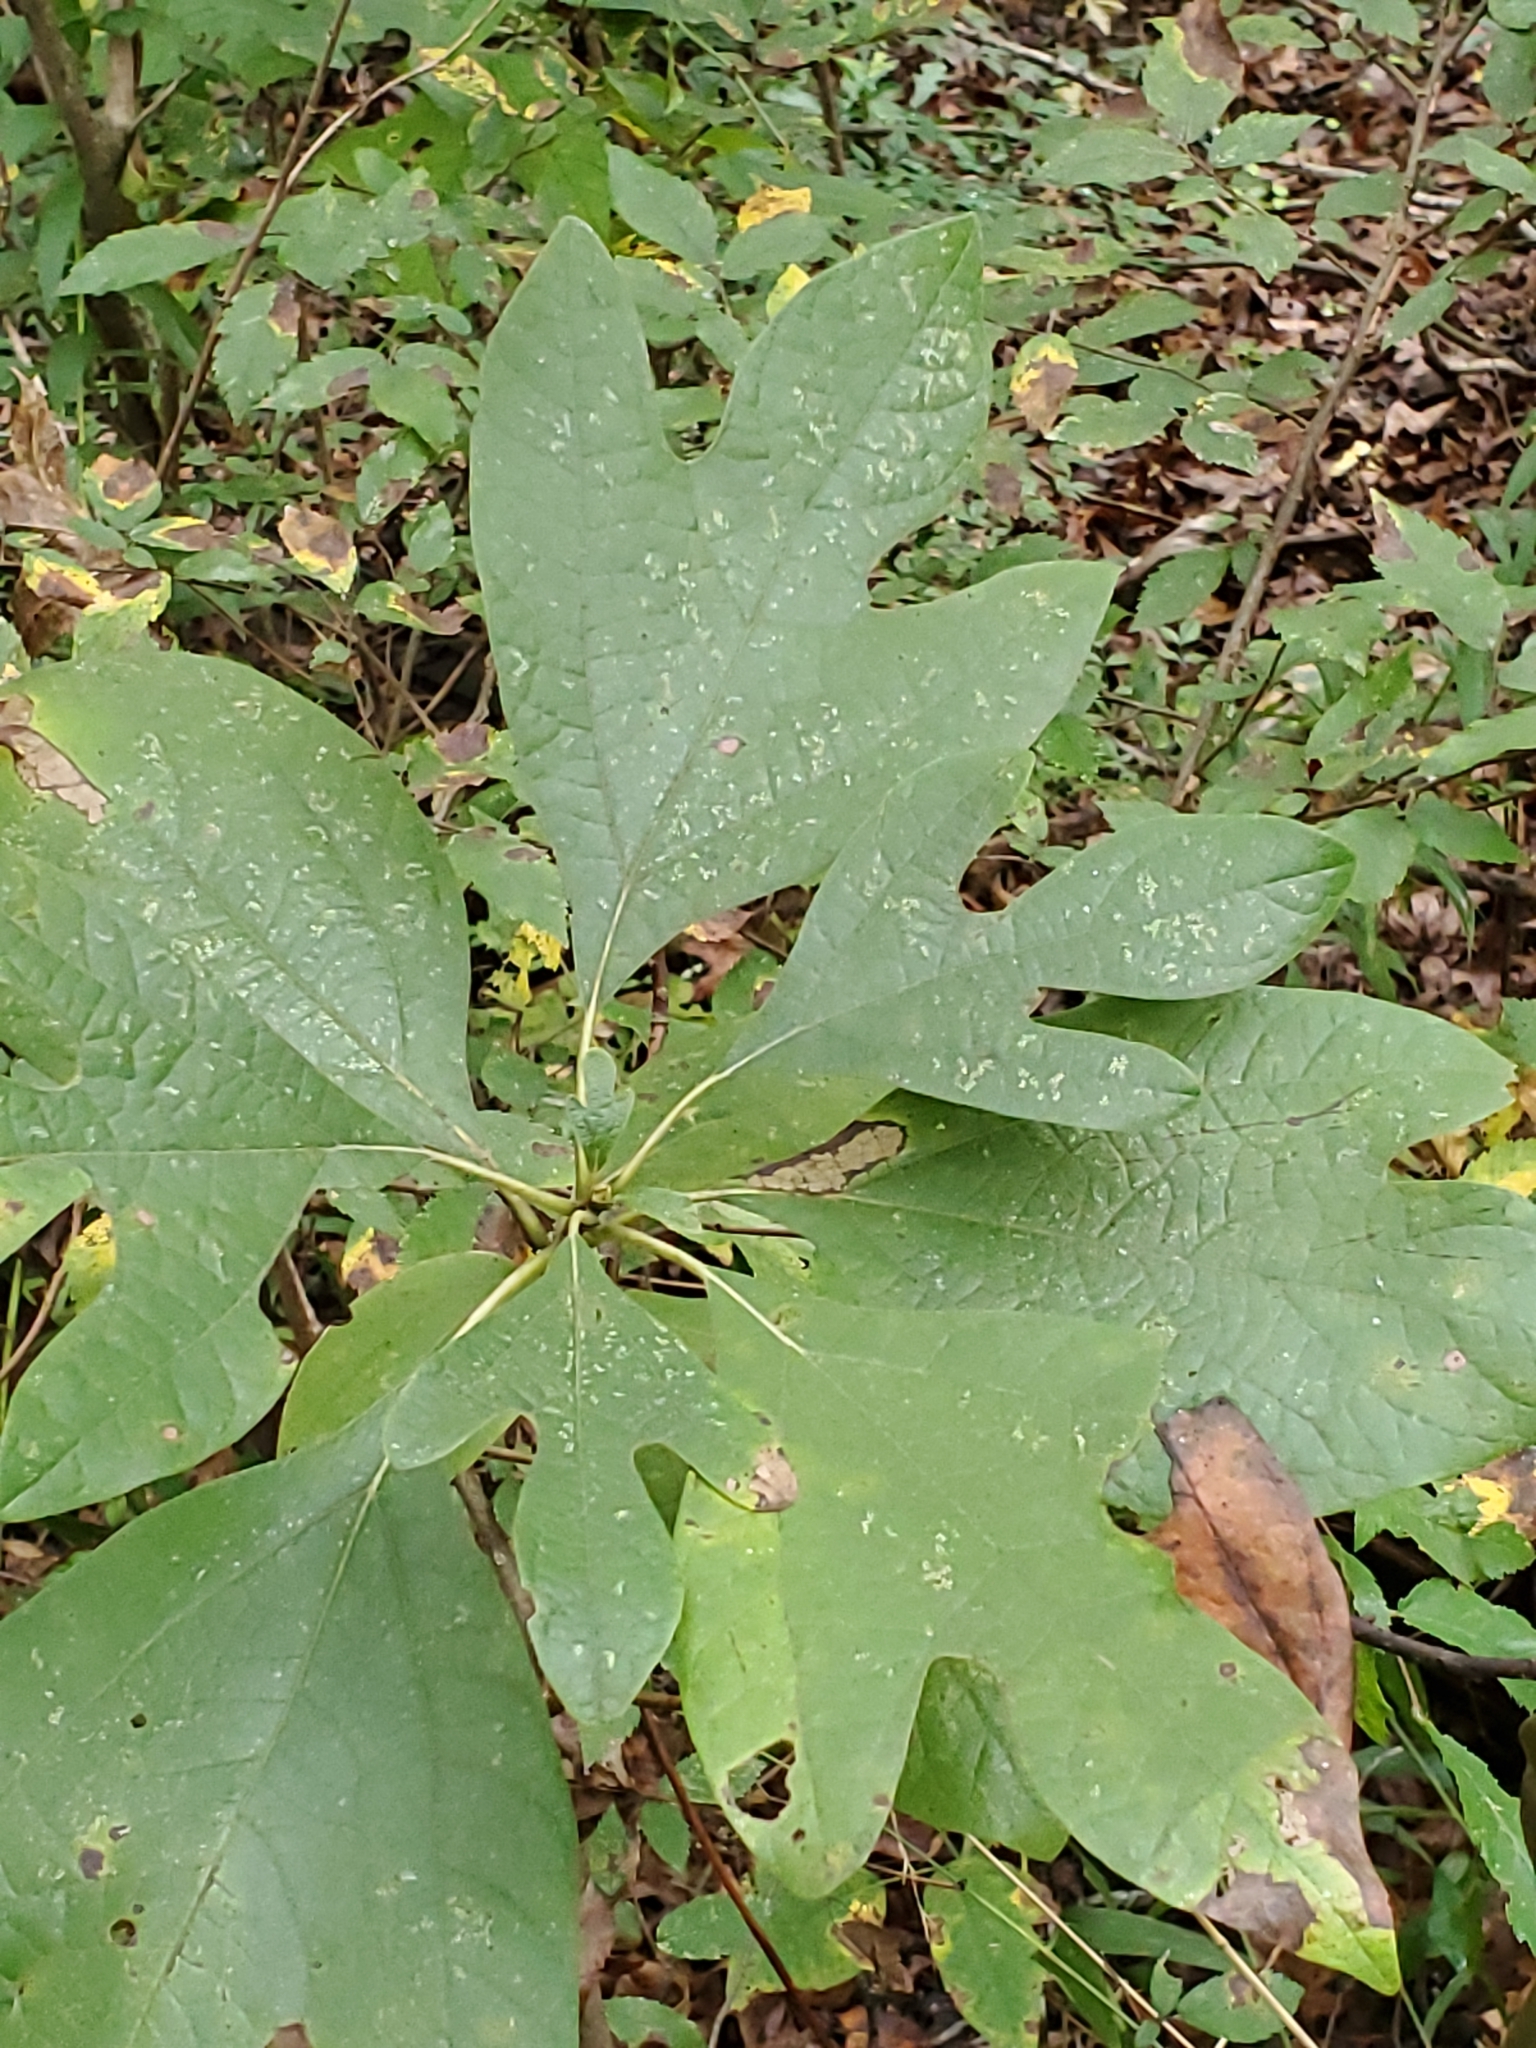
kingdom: Plantae
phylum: Tracheophyta
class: Magnoliopsida
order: Laurales
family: Lauraceae
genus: Sassafras
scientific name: Sassafras albidum
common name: Sassafras
